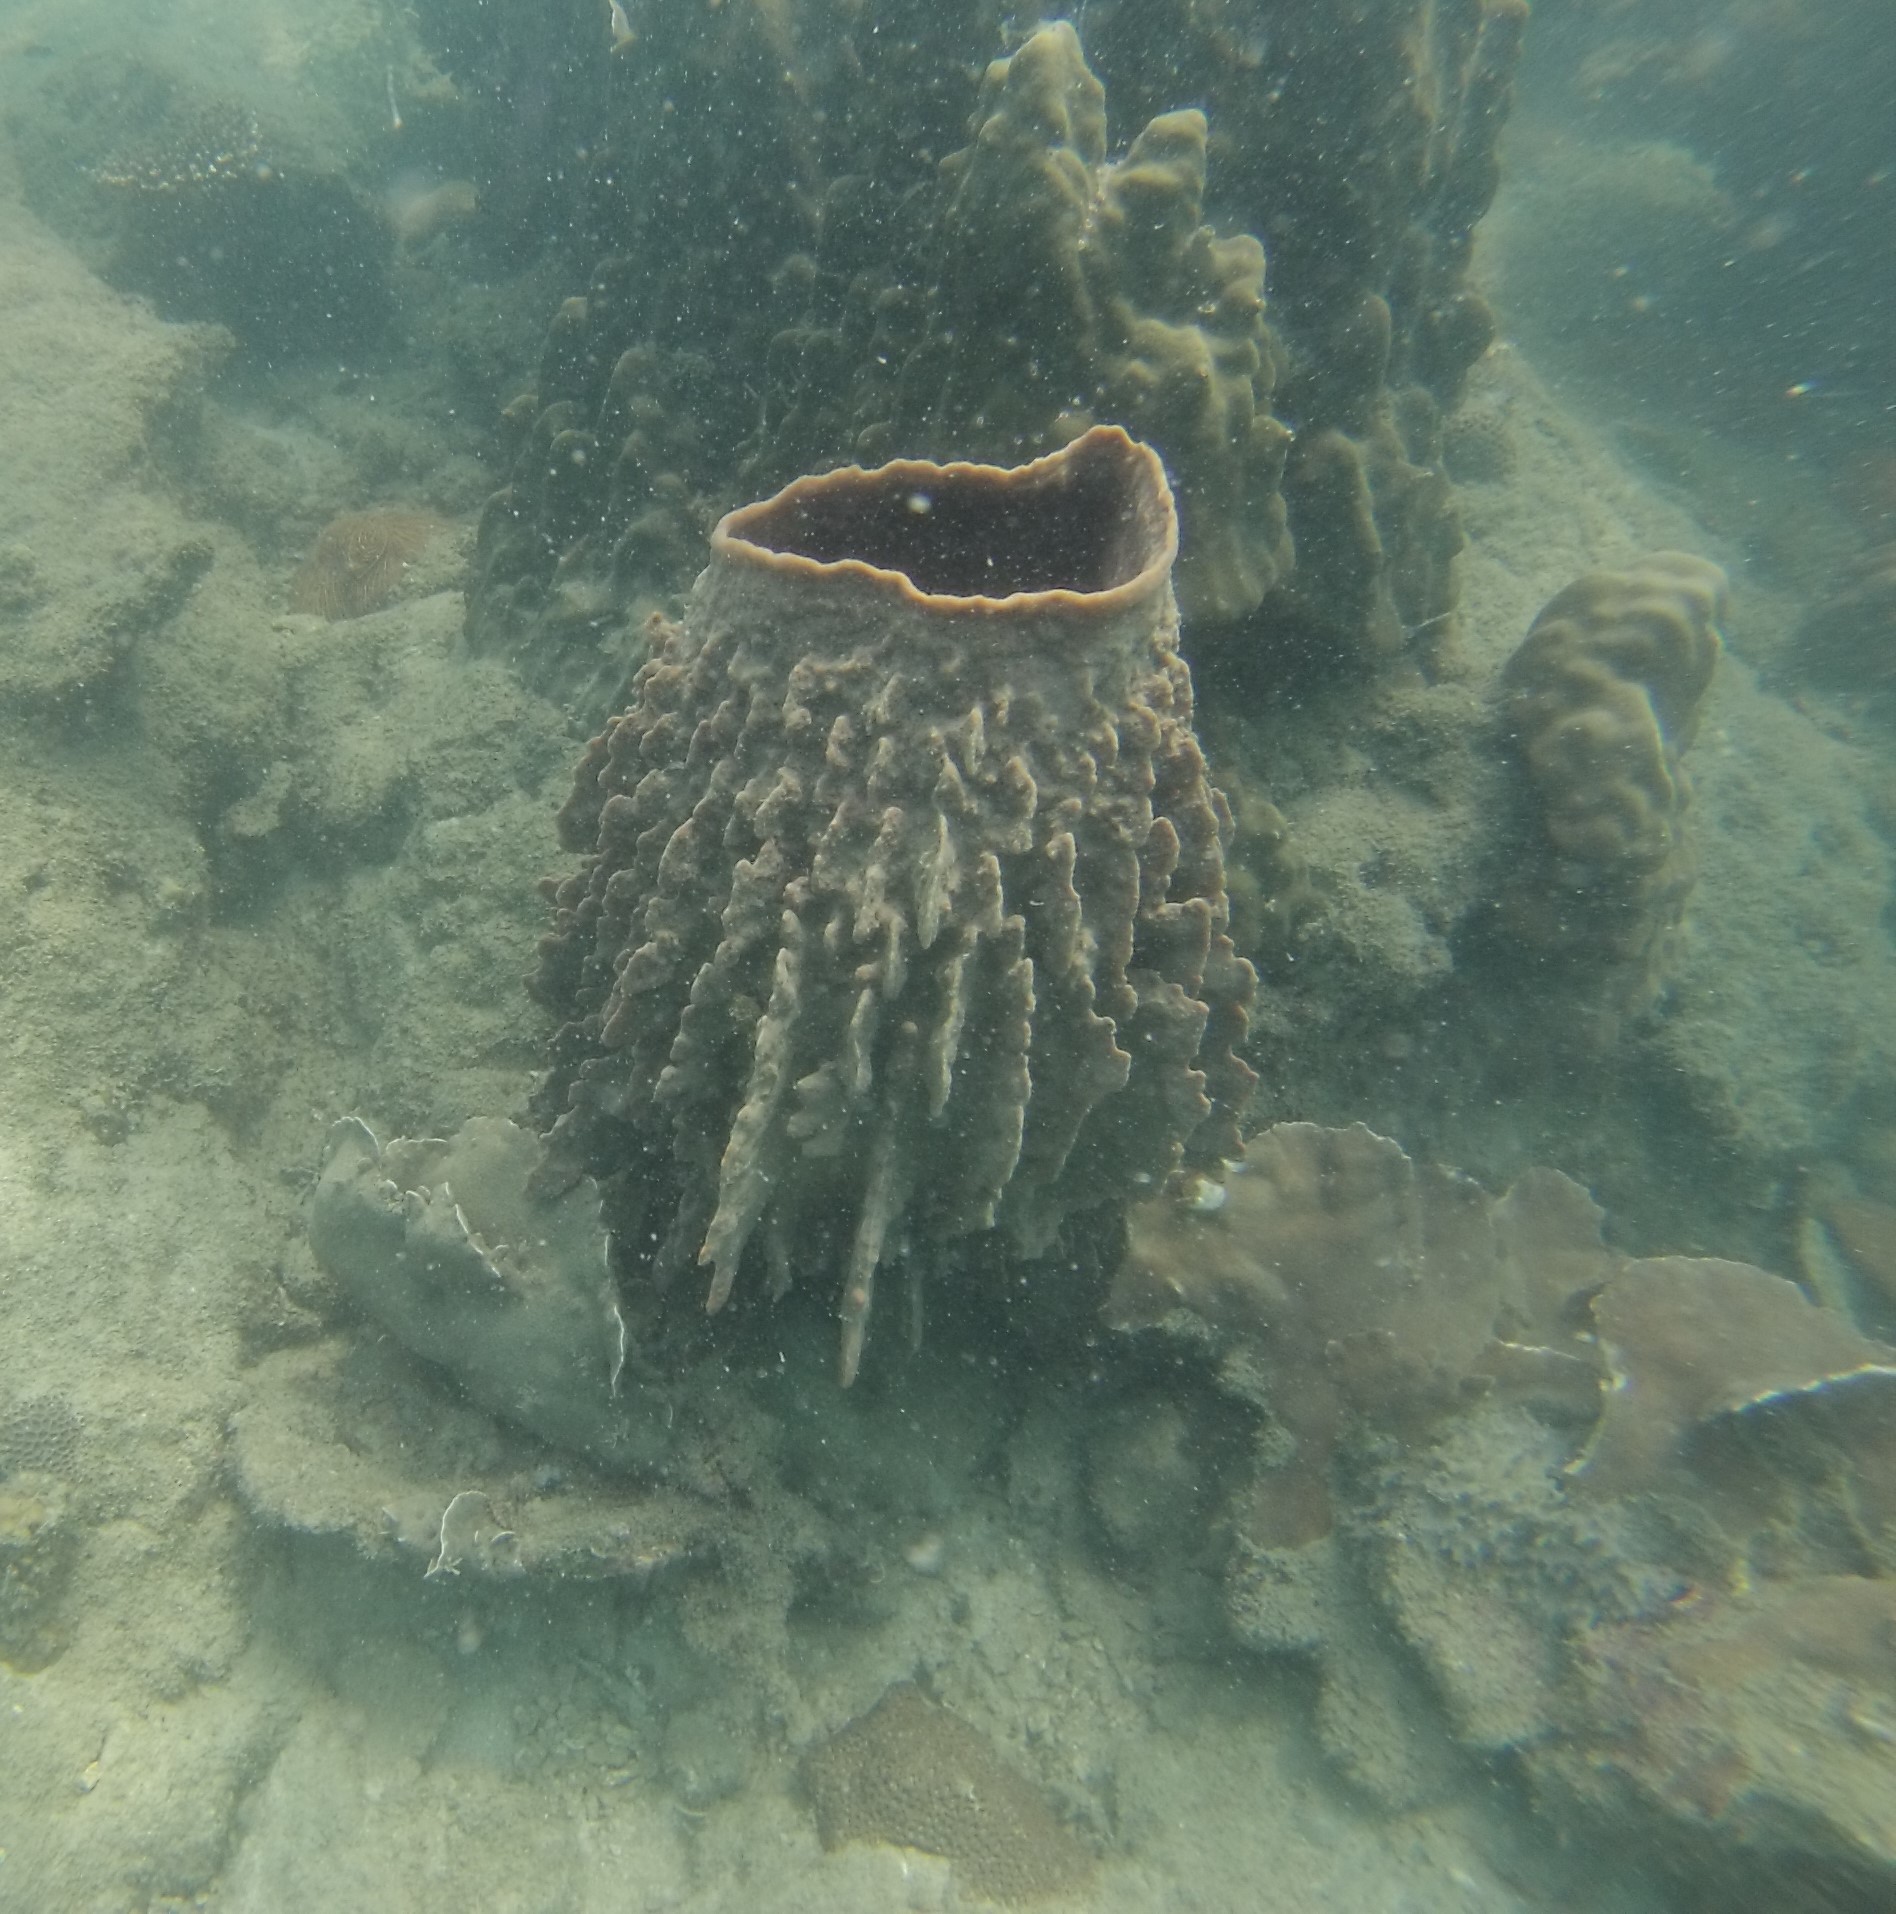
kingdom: Animalia
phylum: Porifera
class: Demospongiae
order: Haplosclerida
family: Petrosiidae
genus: Xestospongia
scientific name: Xestospongia testudinaria
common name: Barrel sponge
